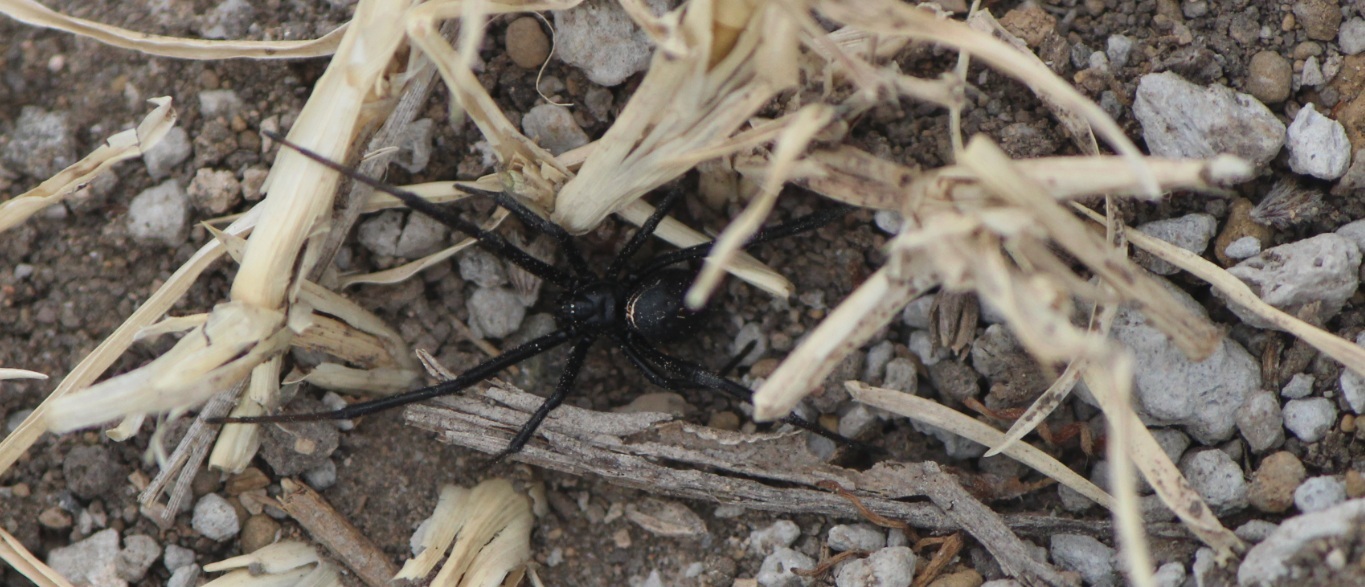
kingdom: Animalia
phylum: Arthropoda
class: Arachnida
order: Araneae
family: Theridiidae
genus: Latrodectus
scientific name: Latrodectus mactans
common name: Cobweb spiders
